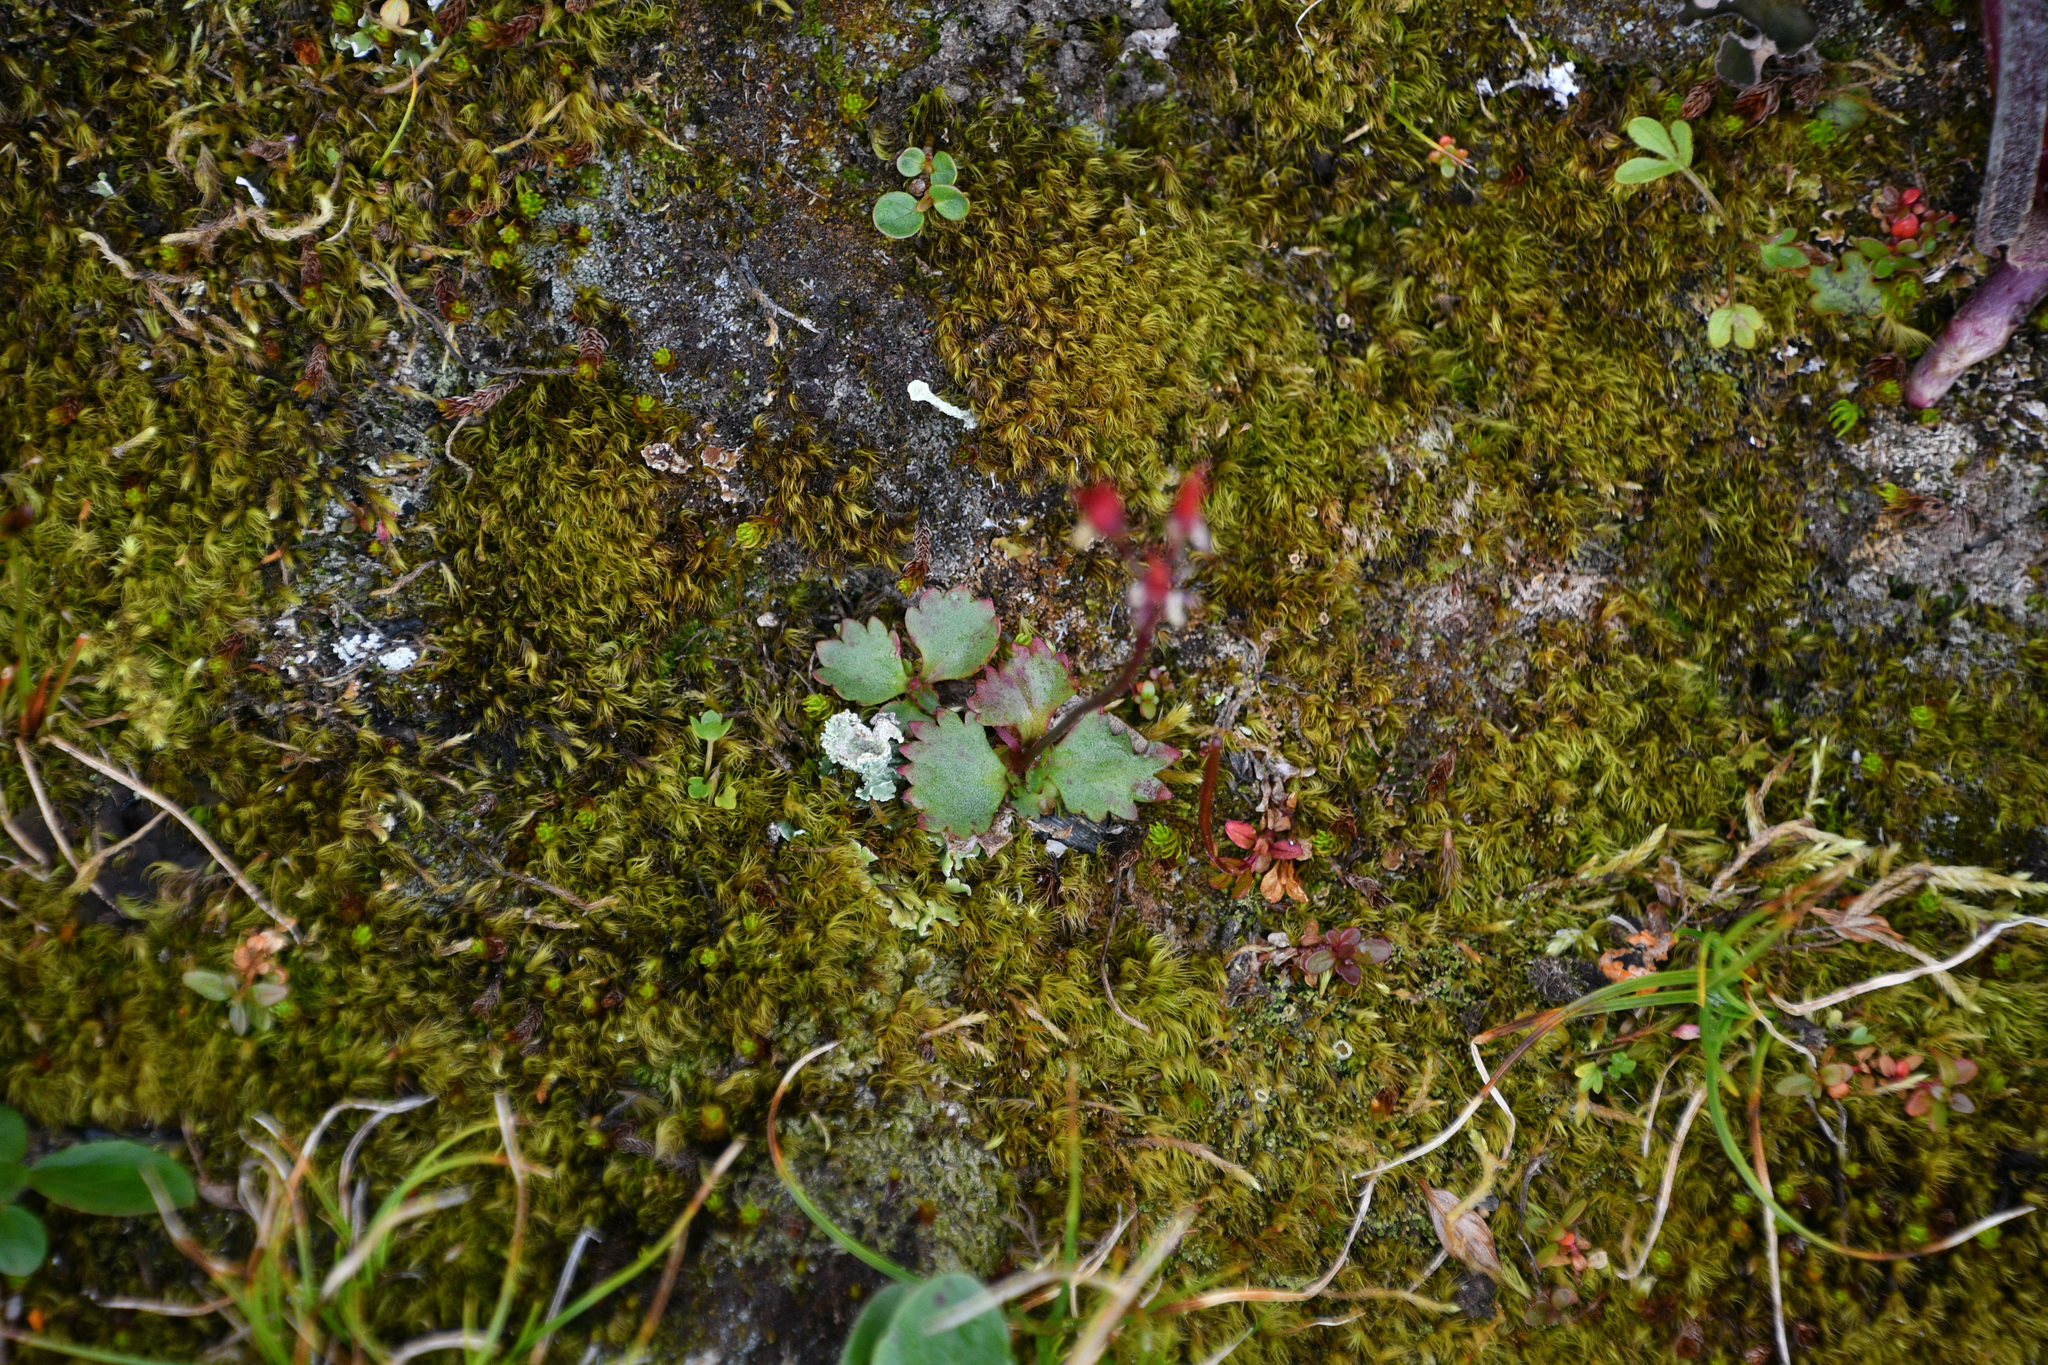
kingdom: Plantae
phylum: Tracheophyta
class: Magnoliopsida
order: Saxifragales
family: Saxifragaceae
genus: Micranthes
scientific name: Micranthes lyallii
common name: Lyall's saxifrage
